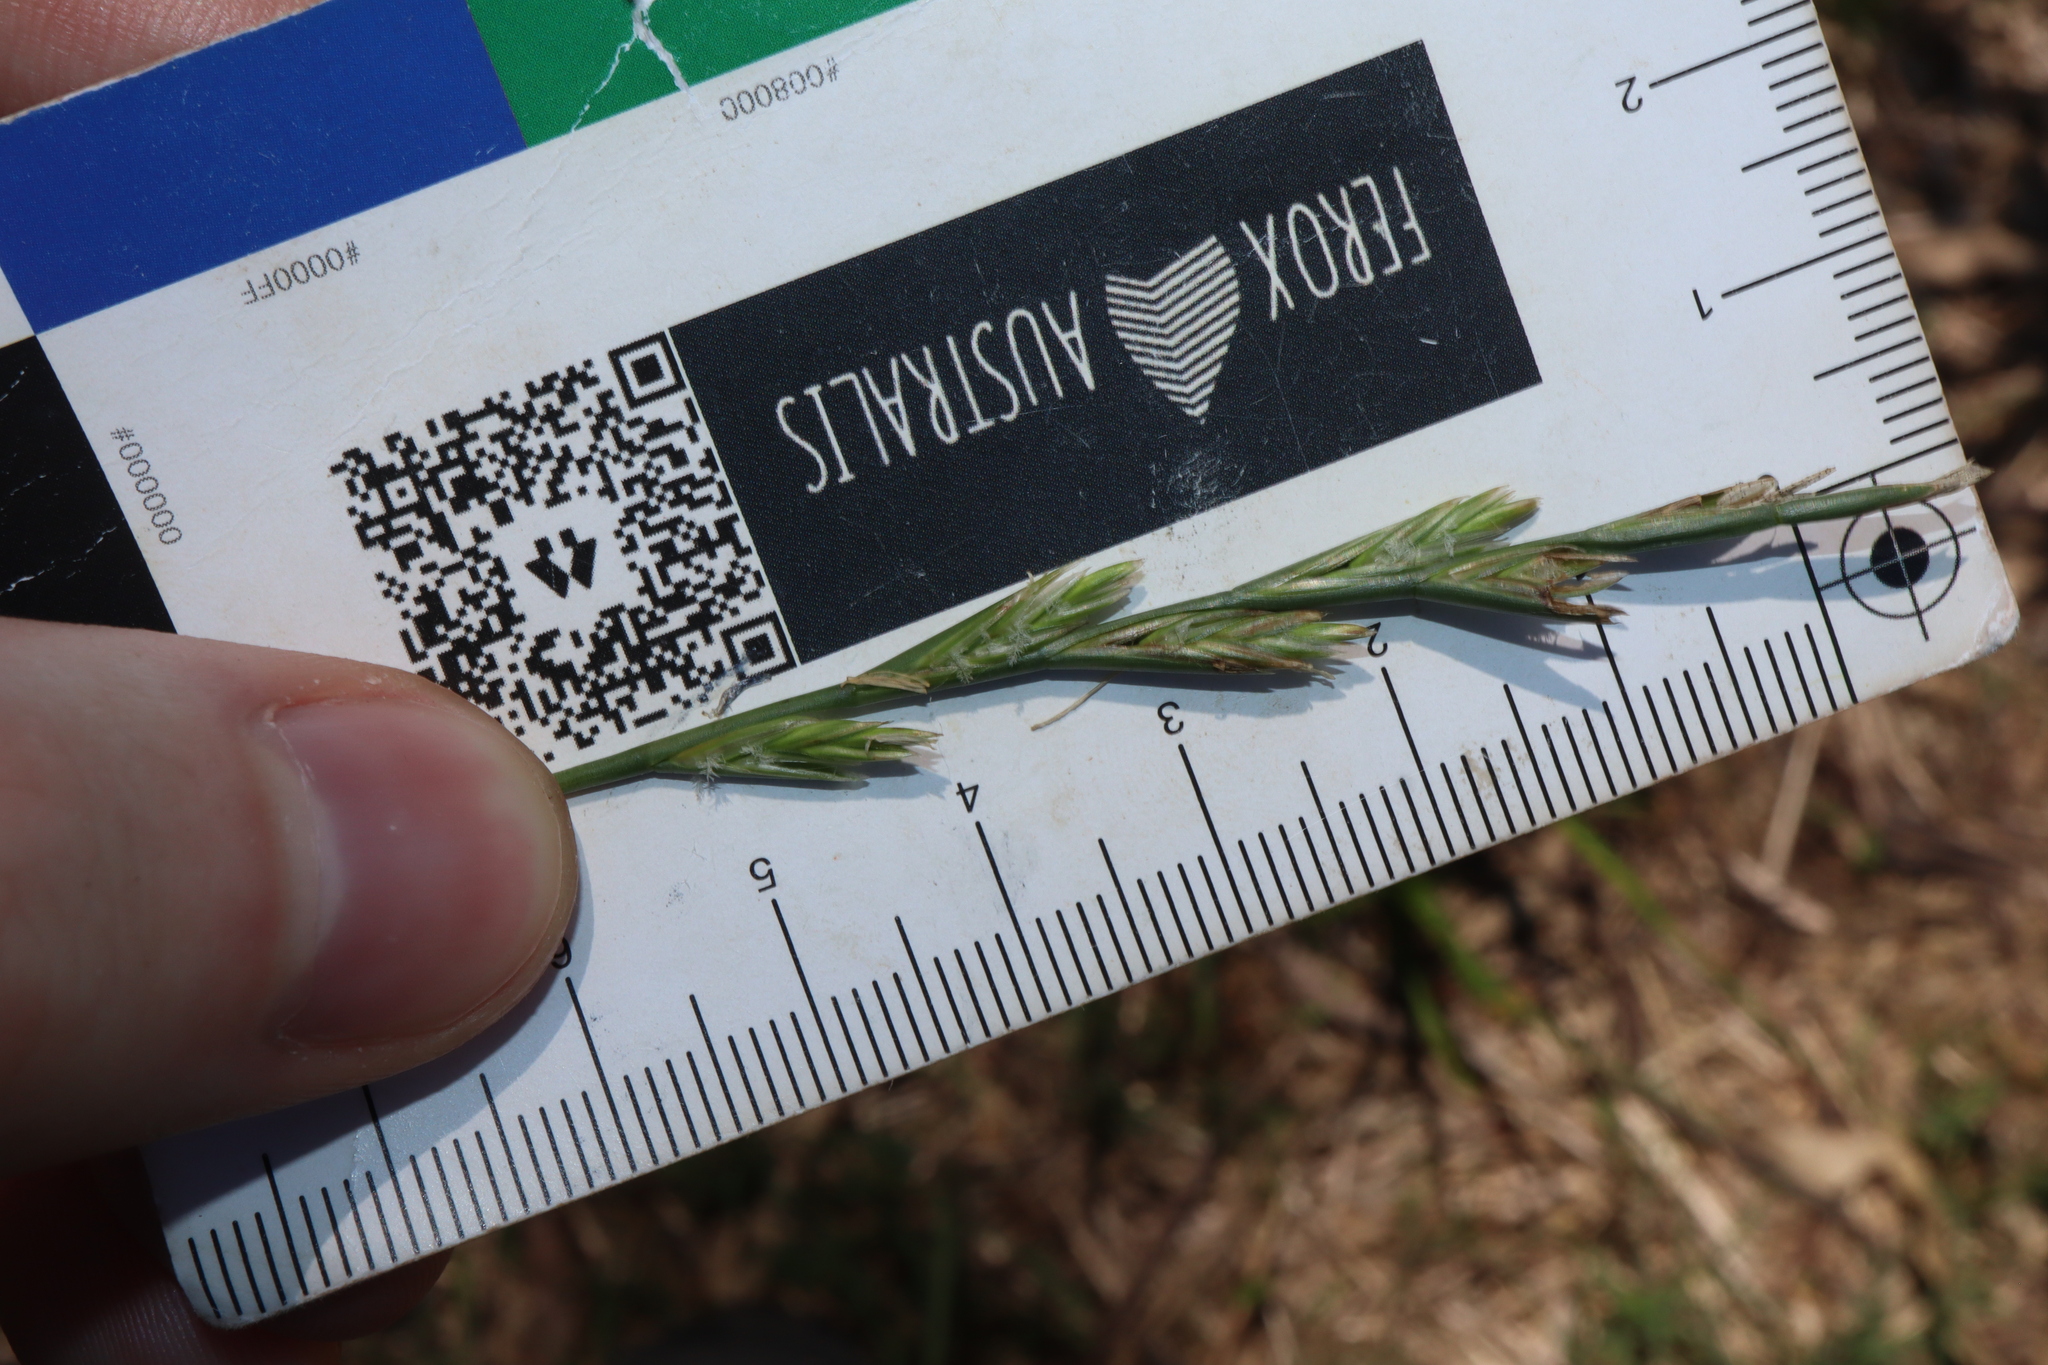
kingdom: Plantae
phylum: Tracheophyta
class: Liliopsida
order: Poales
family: Poaceae
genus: Lolium
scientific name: Lolium rigidum
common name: Wimmera ryegrass
